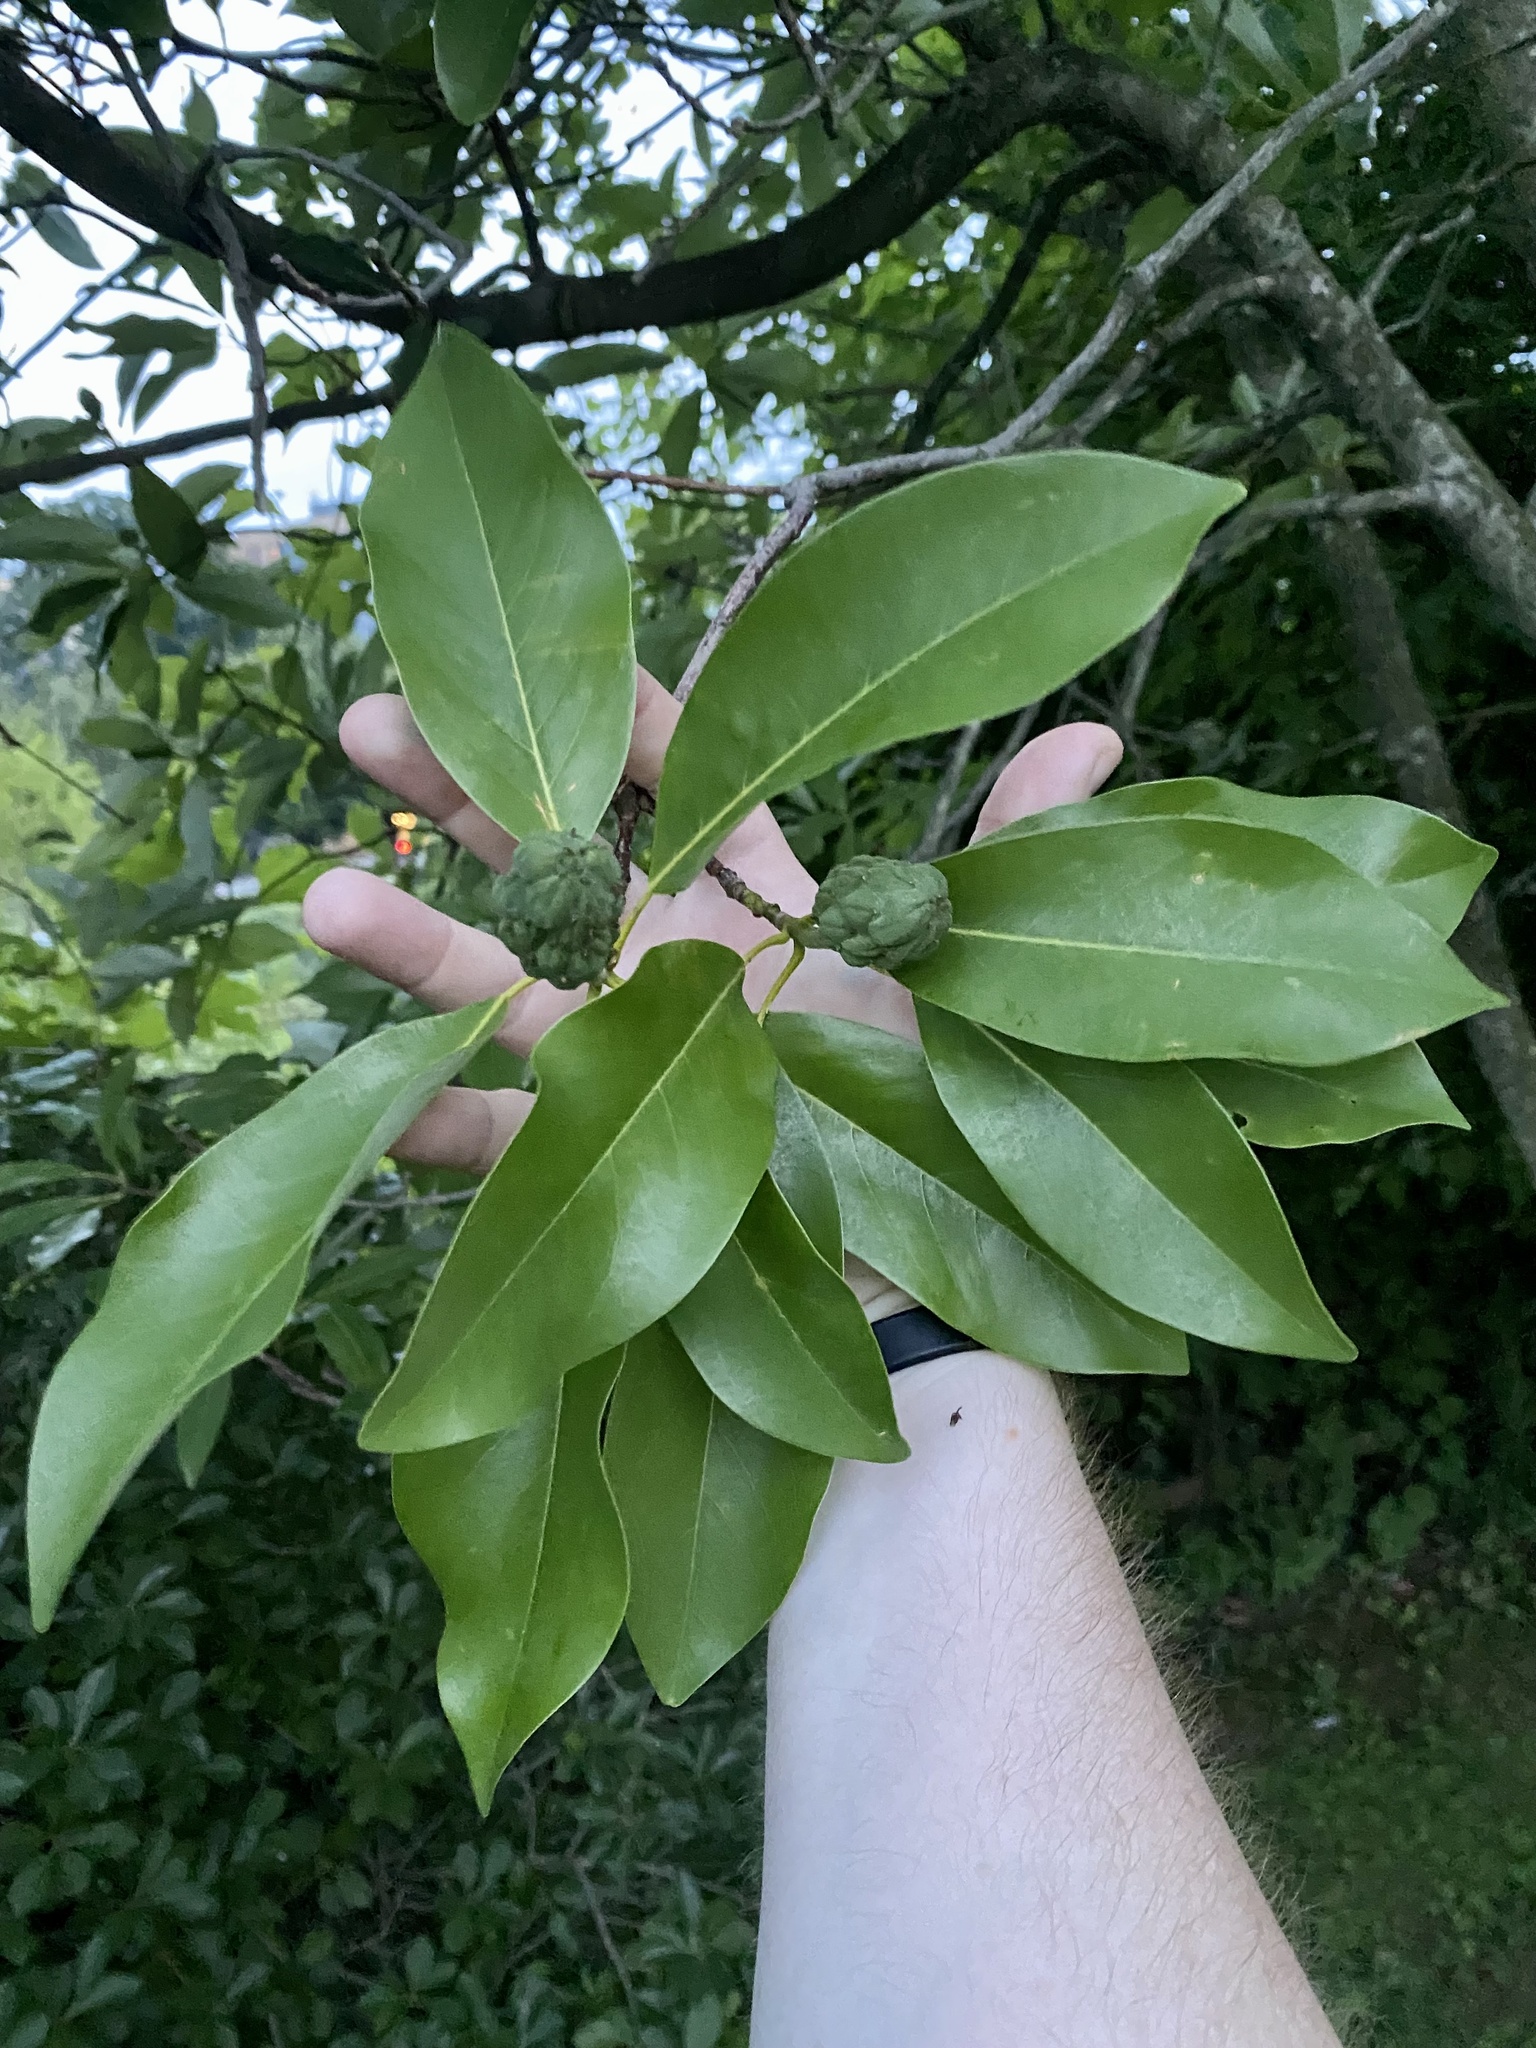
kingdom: Plantae
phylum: Tracheophyta
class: Magnoliopsida
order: Magnoliales
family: Magnoliaceae
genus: Magnolia
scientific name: Magnolia virginiana
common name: Swamp bay
